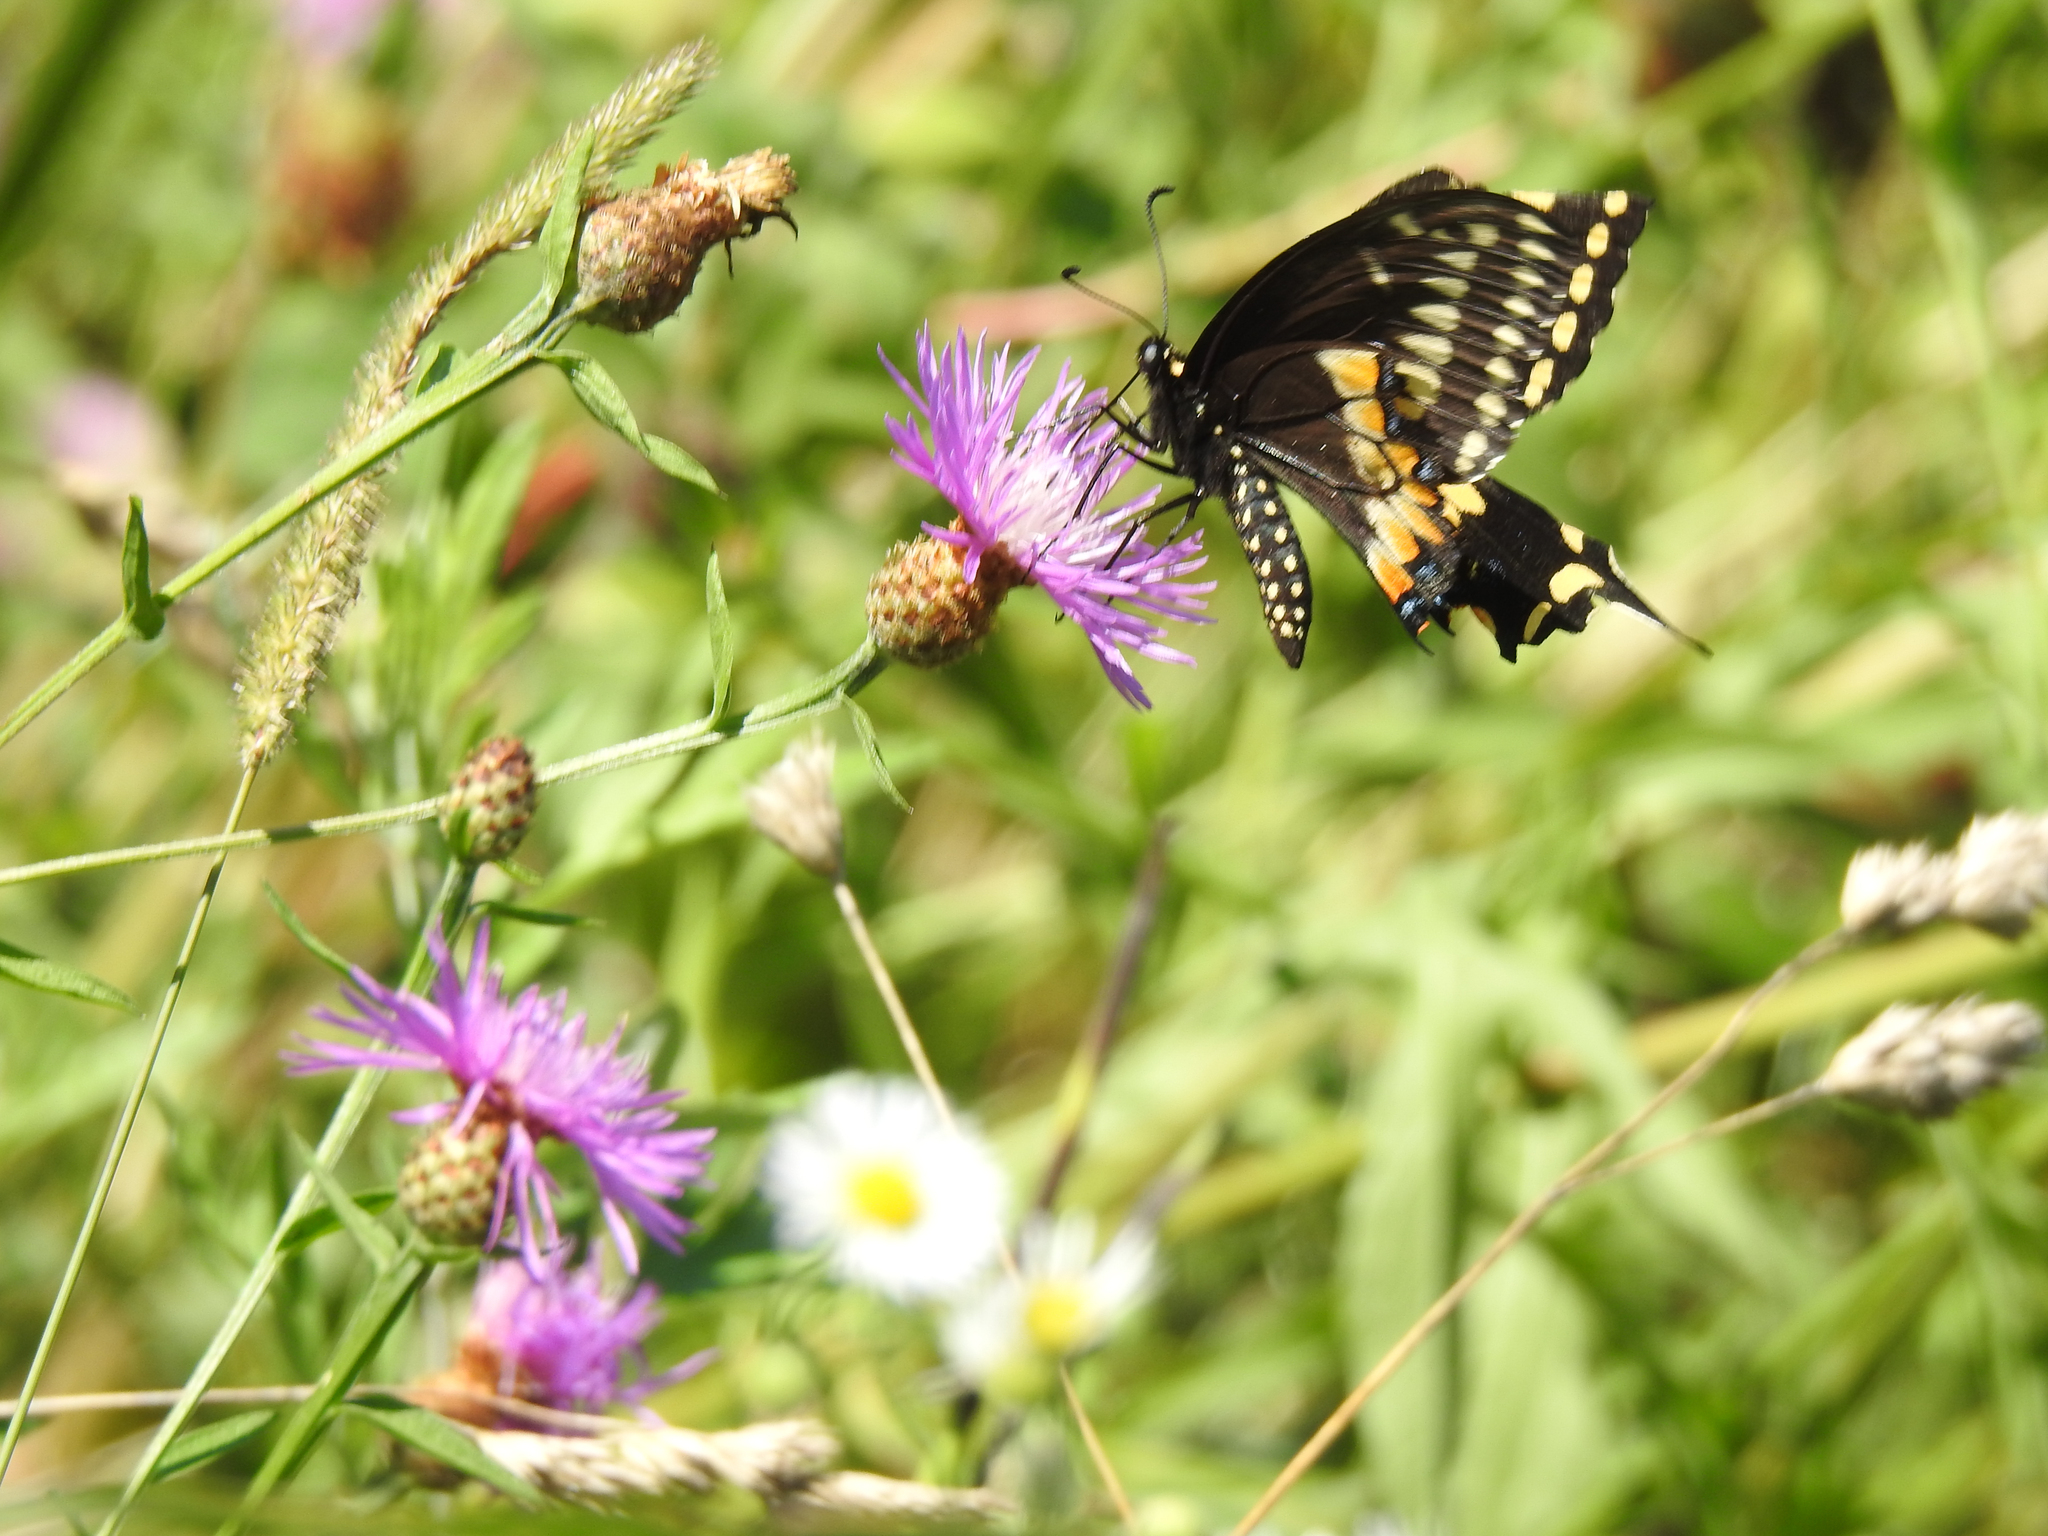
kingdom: Animalia
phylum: Arthropoda
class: Insecta
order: Lepidoptera
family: Papilionidae
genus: Papilio
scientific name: Papilio polyxenes
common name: Black swallowtail
